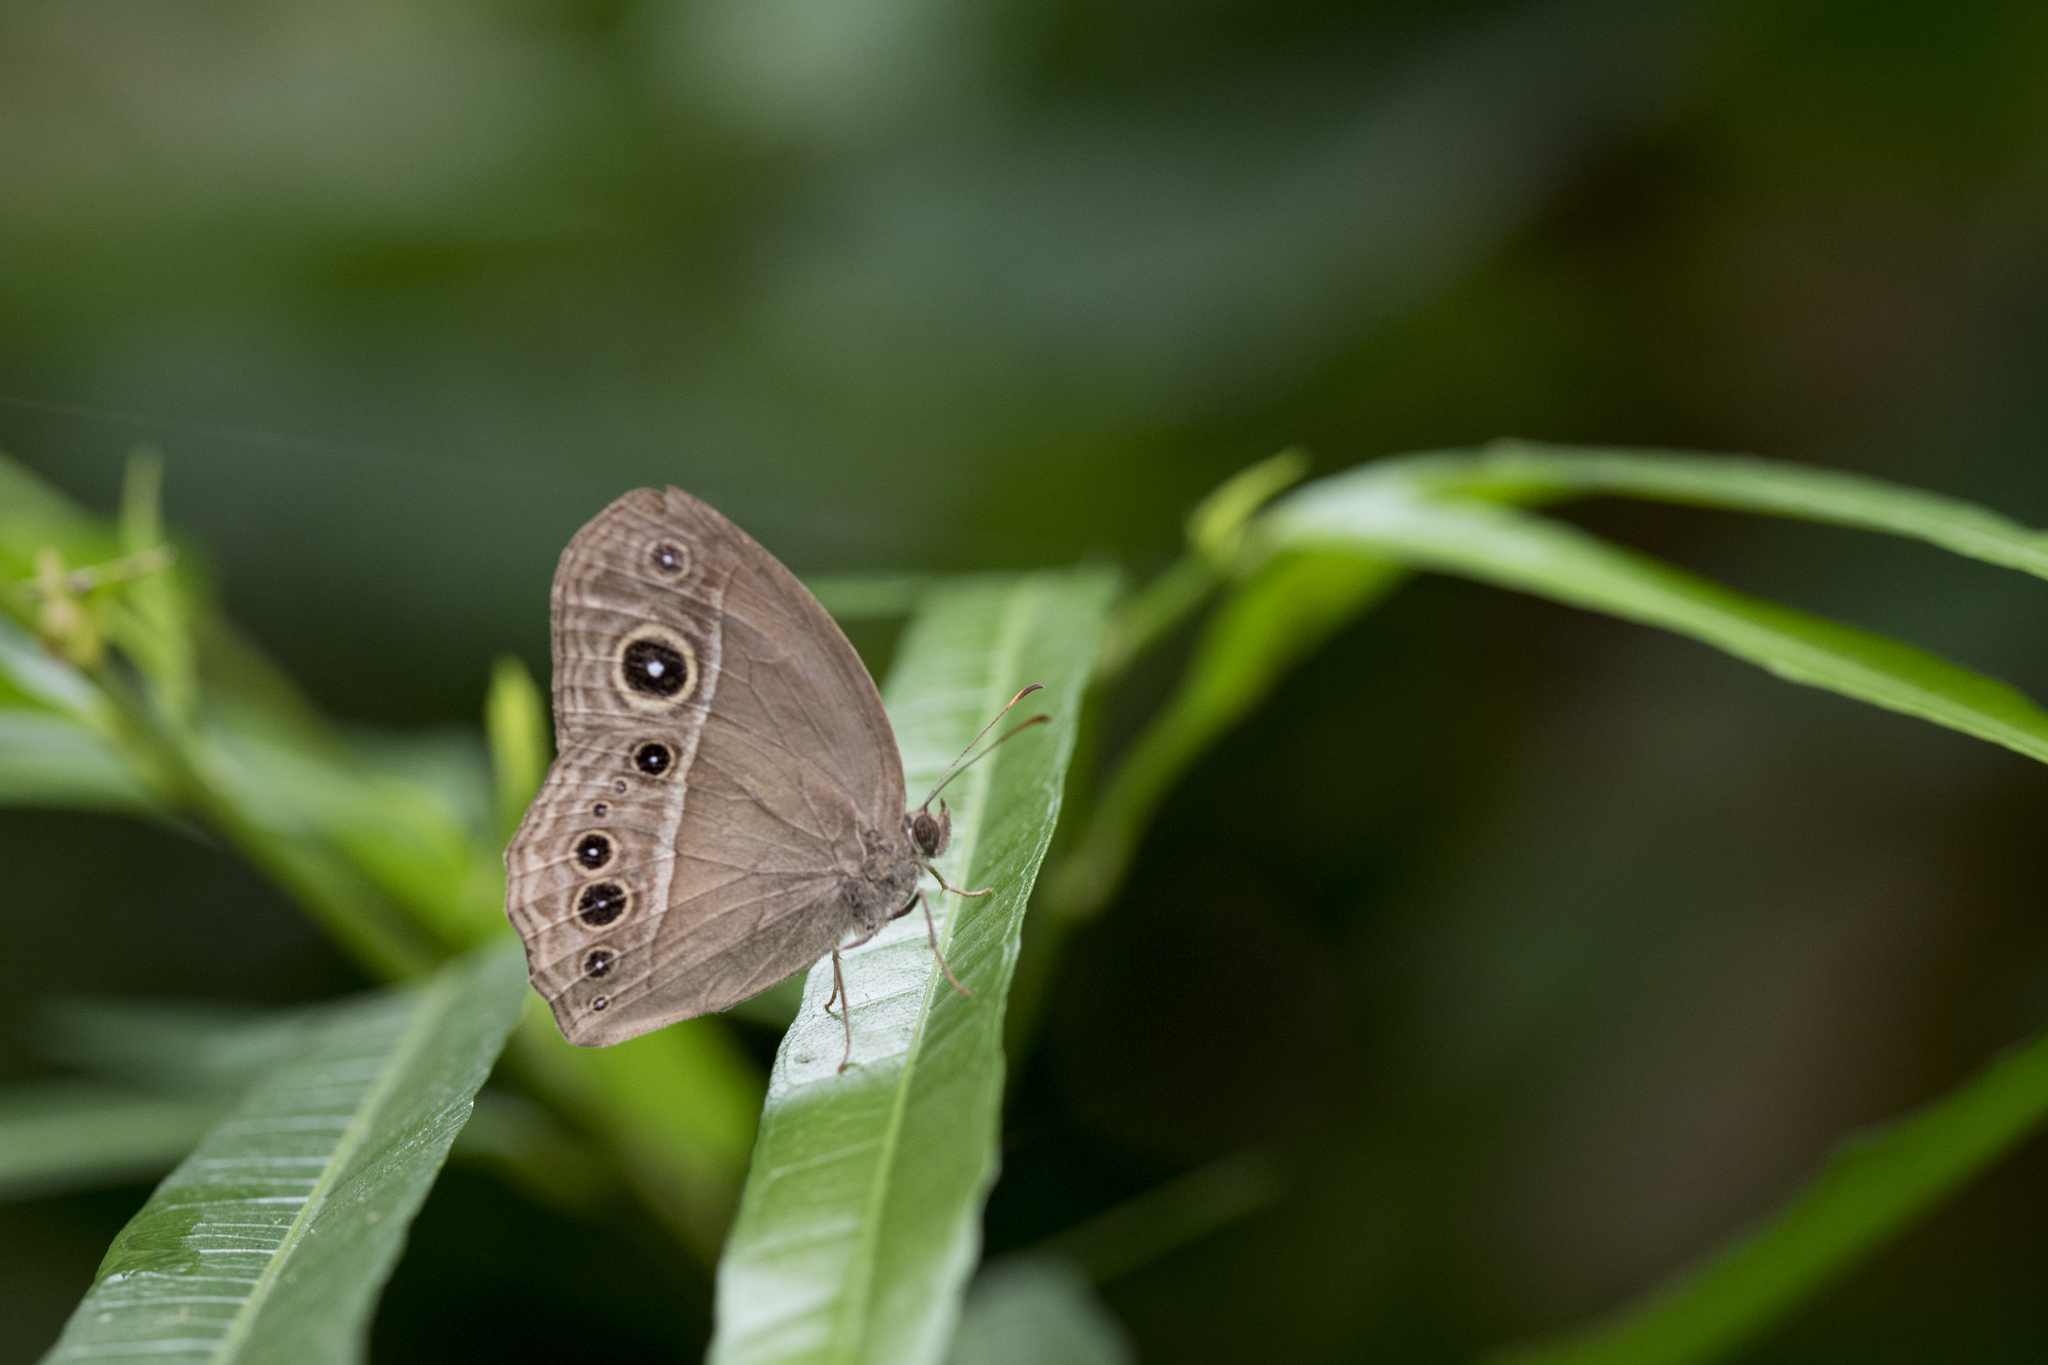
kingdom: Animalia
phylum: Arthropoda
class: Insecta
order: Lepidoptera
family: Nymphalidae
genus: Mycalesis
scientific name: Mycalesis horsfieldii
